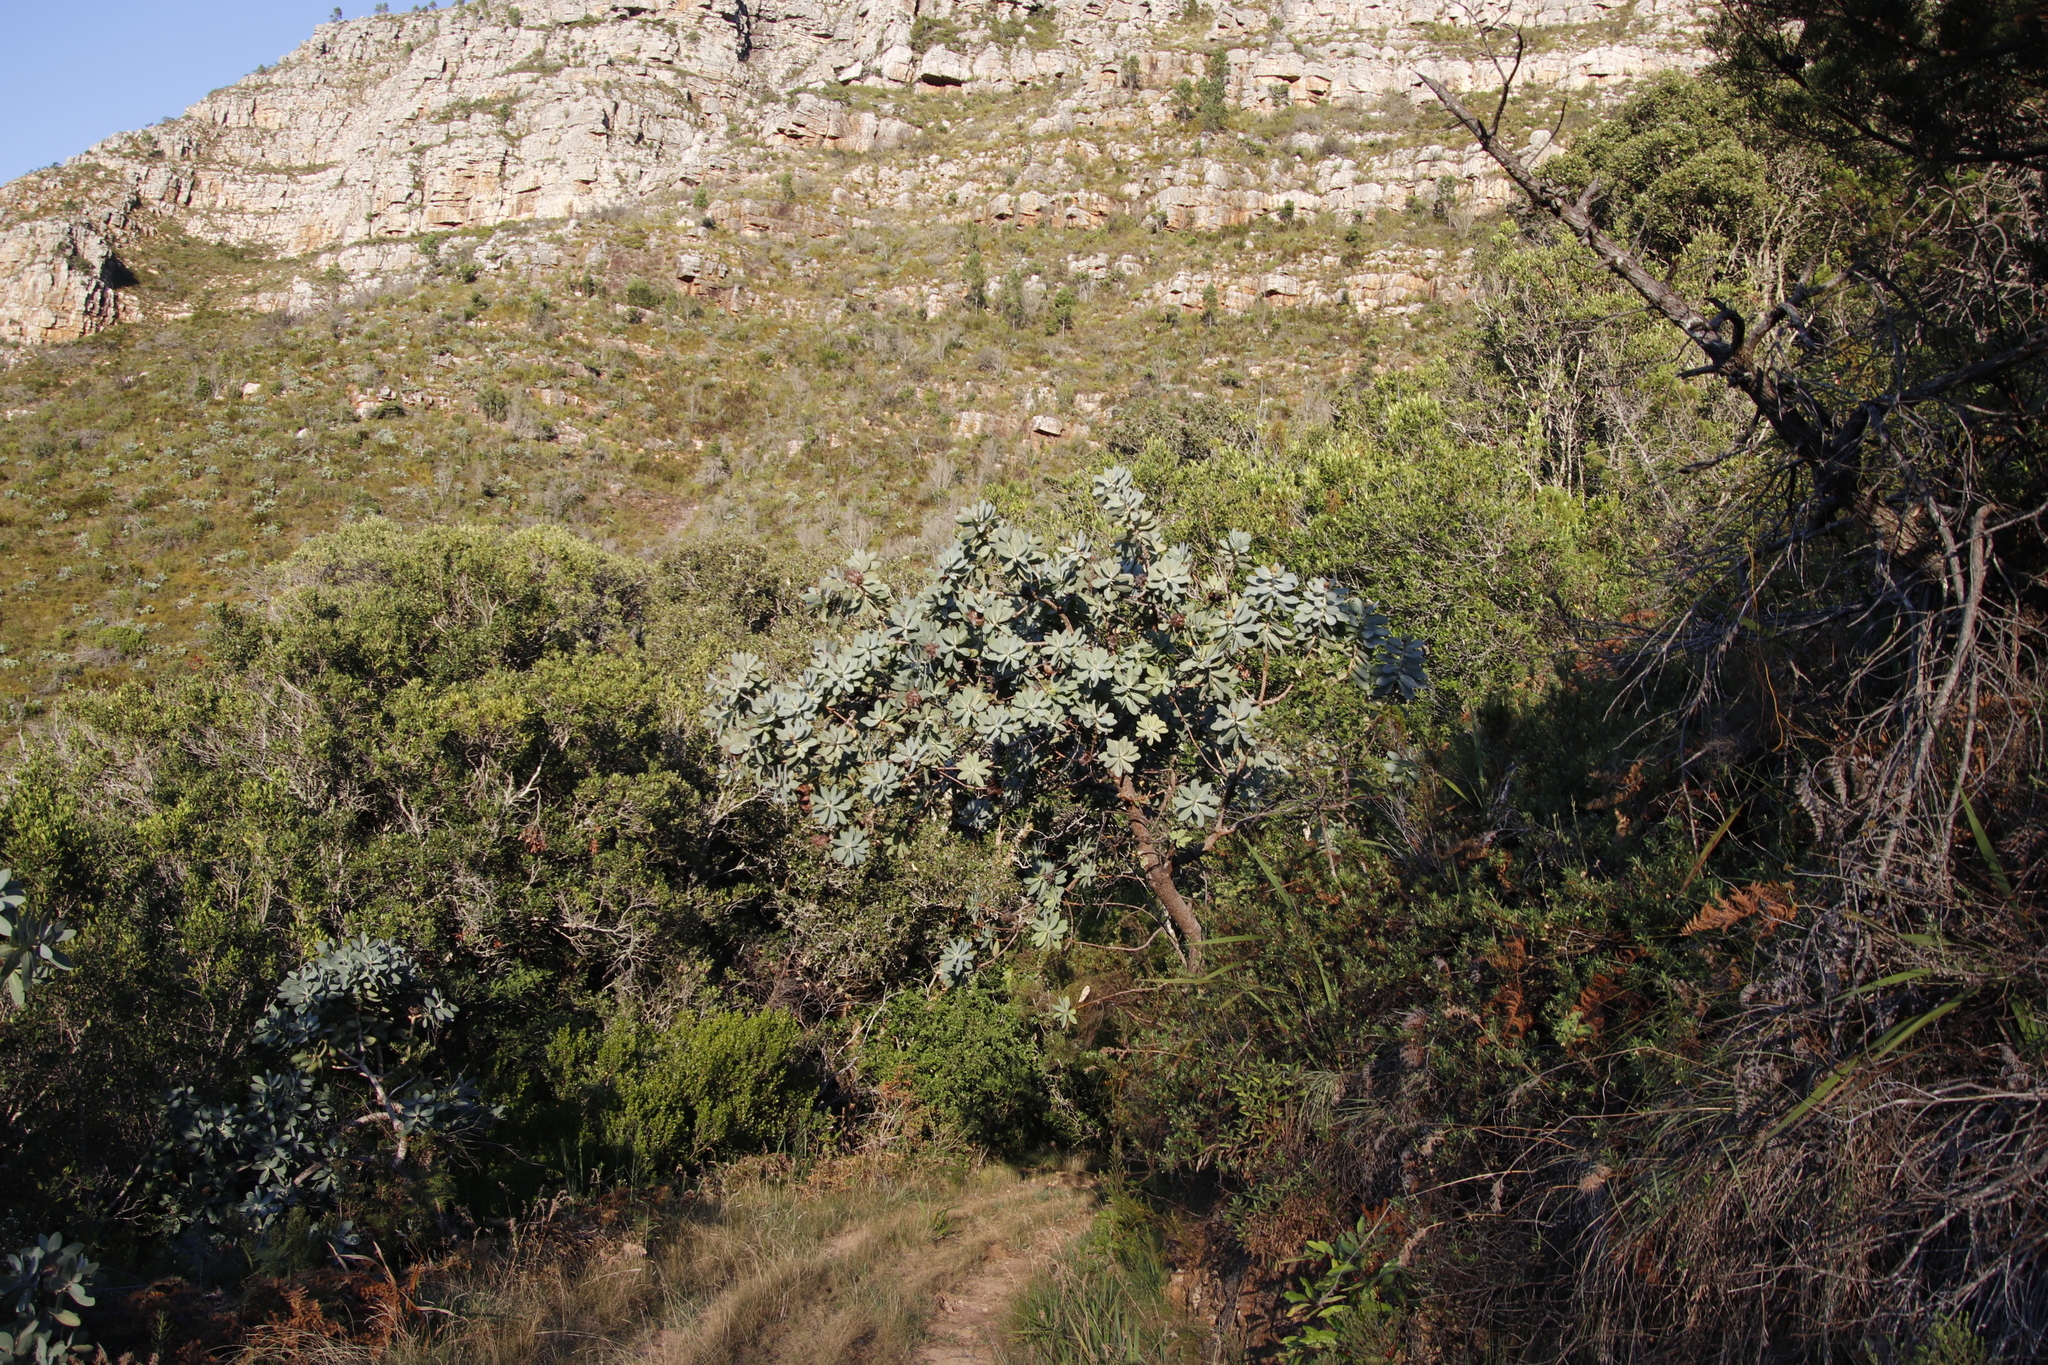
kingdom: Plantae
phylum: Tracheophyta
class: Magnoliopsida
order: Proteales
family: Proteaceae
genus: Protea
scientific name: Protea nitida
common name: Tree protea
